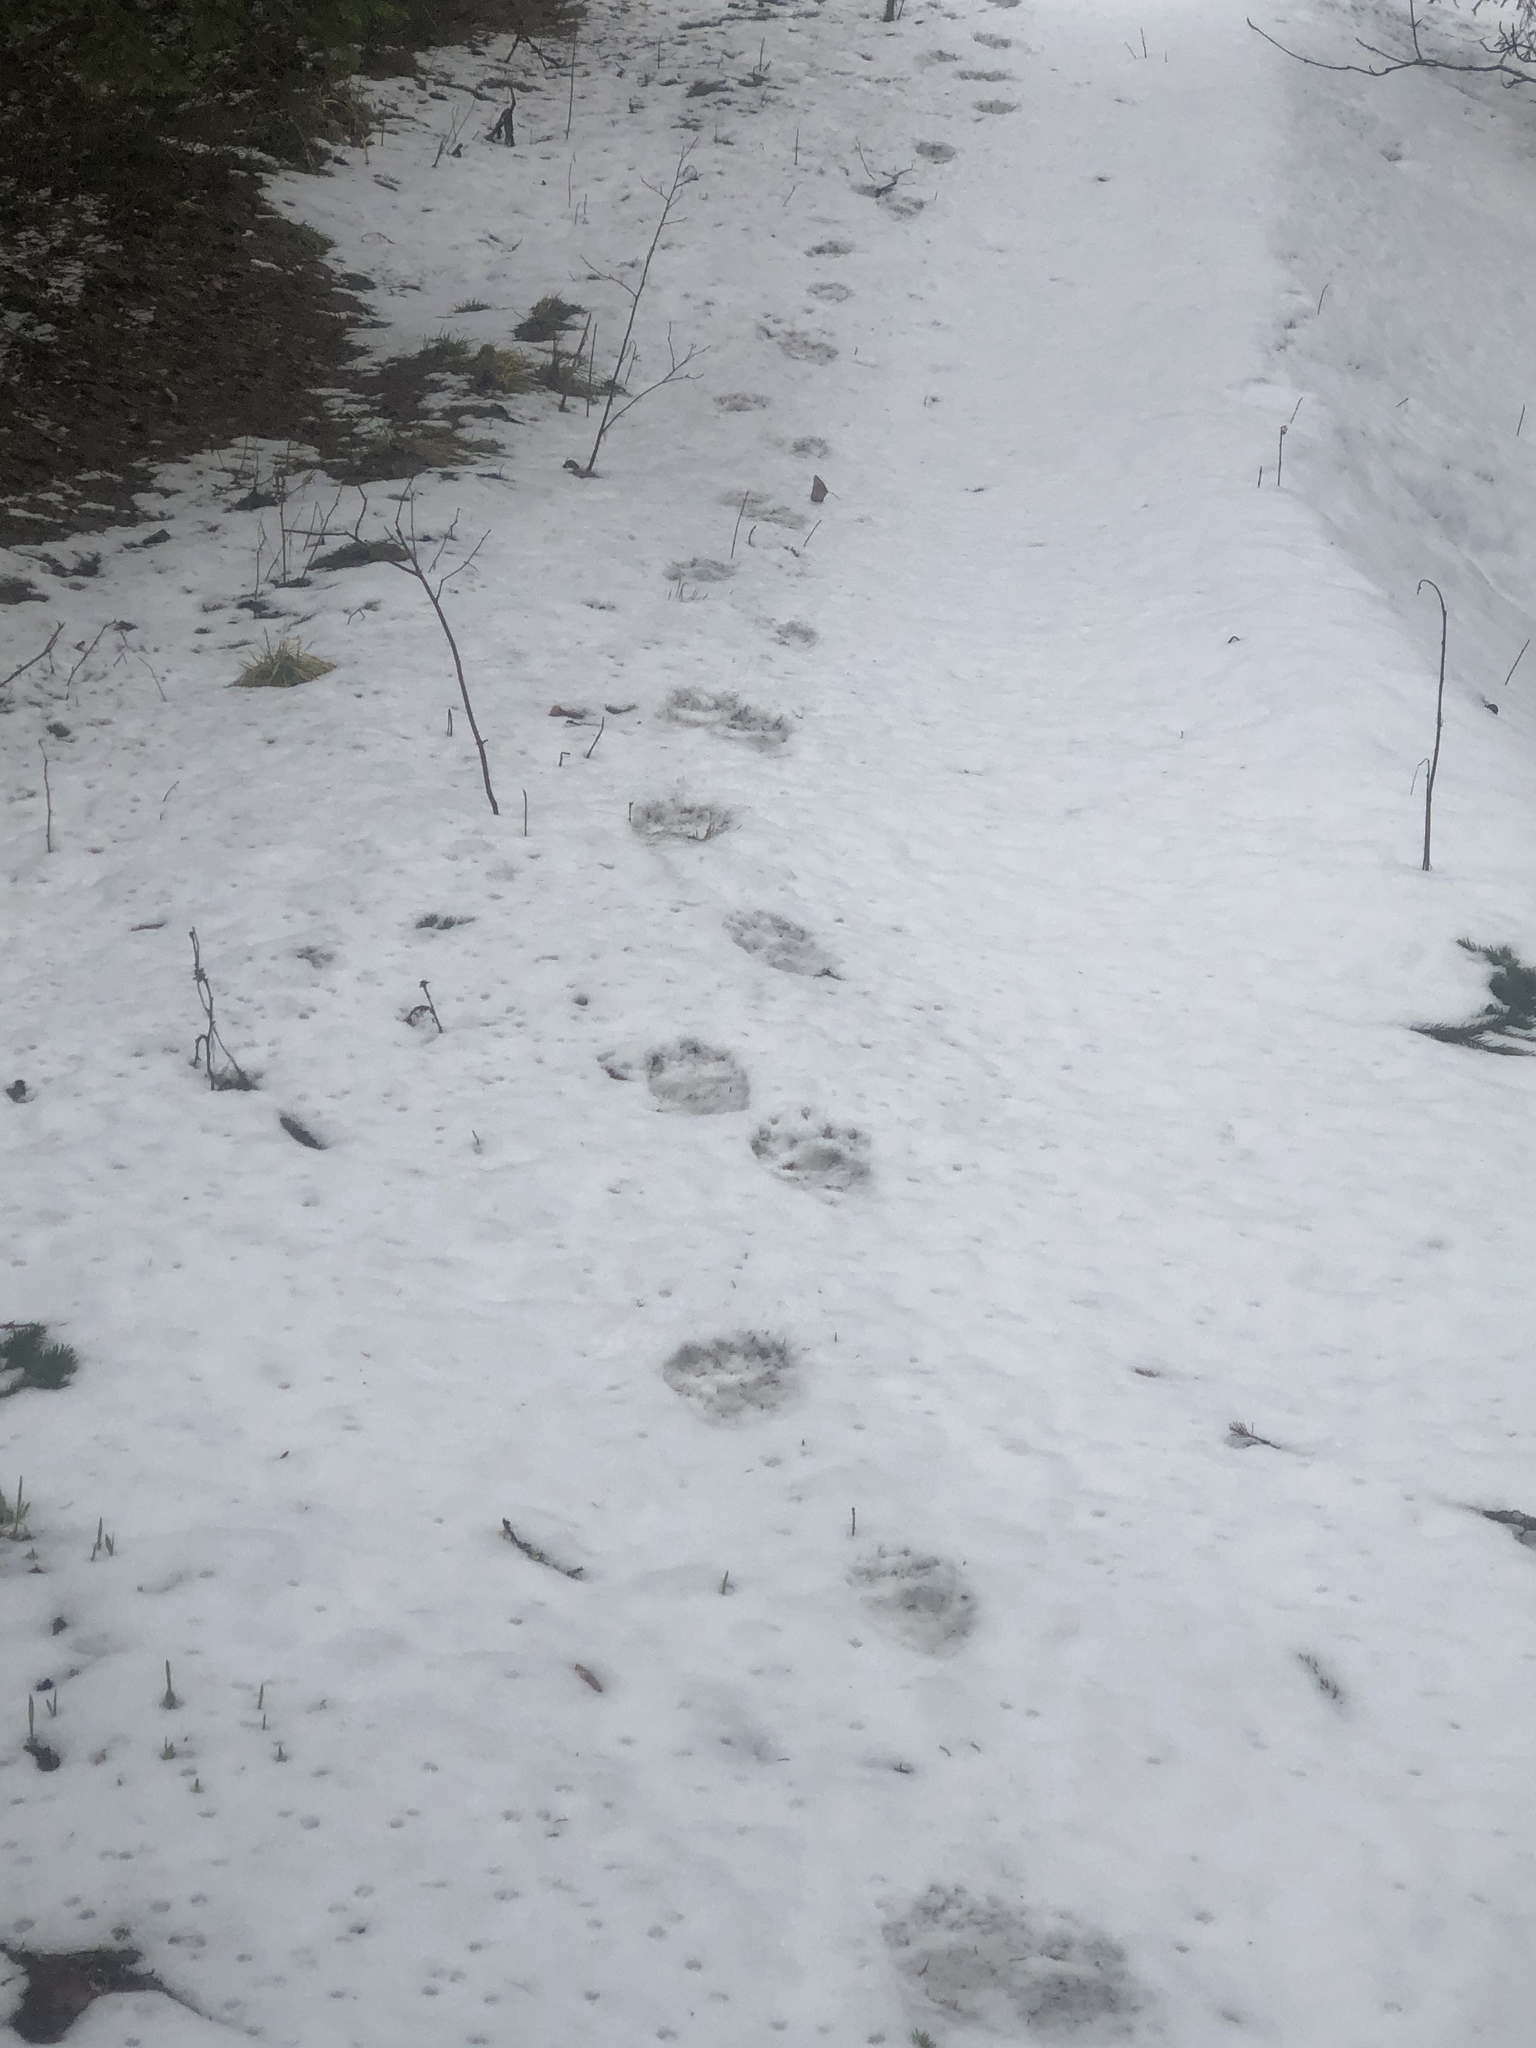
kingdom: Animalia
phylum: Chordata
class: Mammalia
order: Carnivora
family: Ursidae
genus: Ursus
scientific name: Ursus arctos
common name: Brown bear
